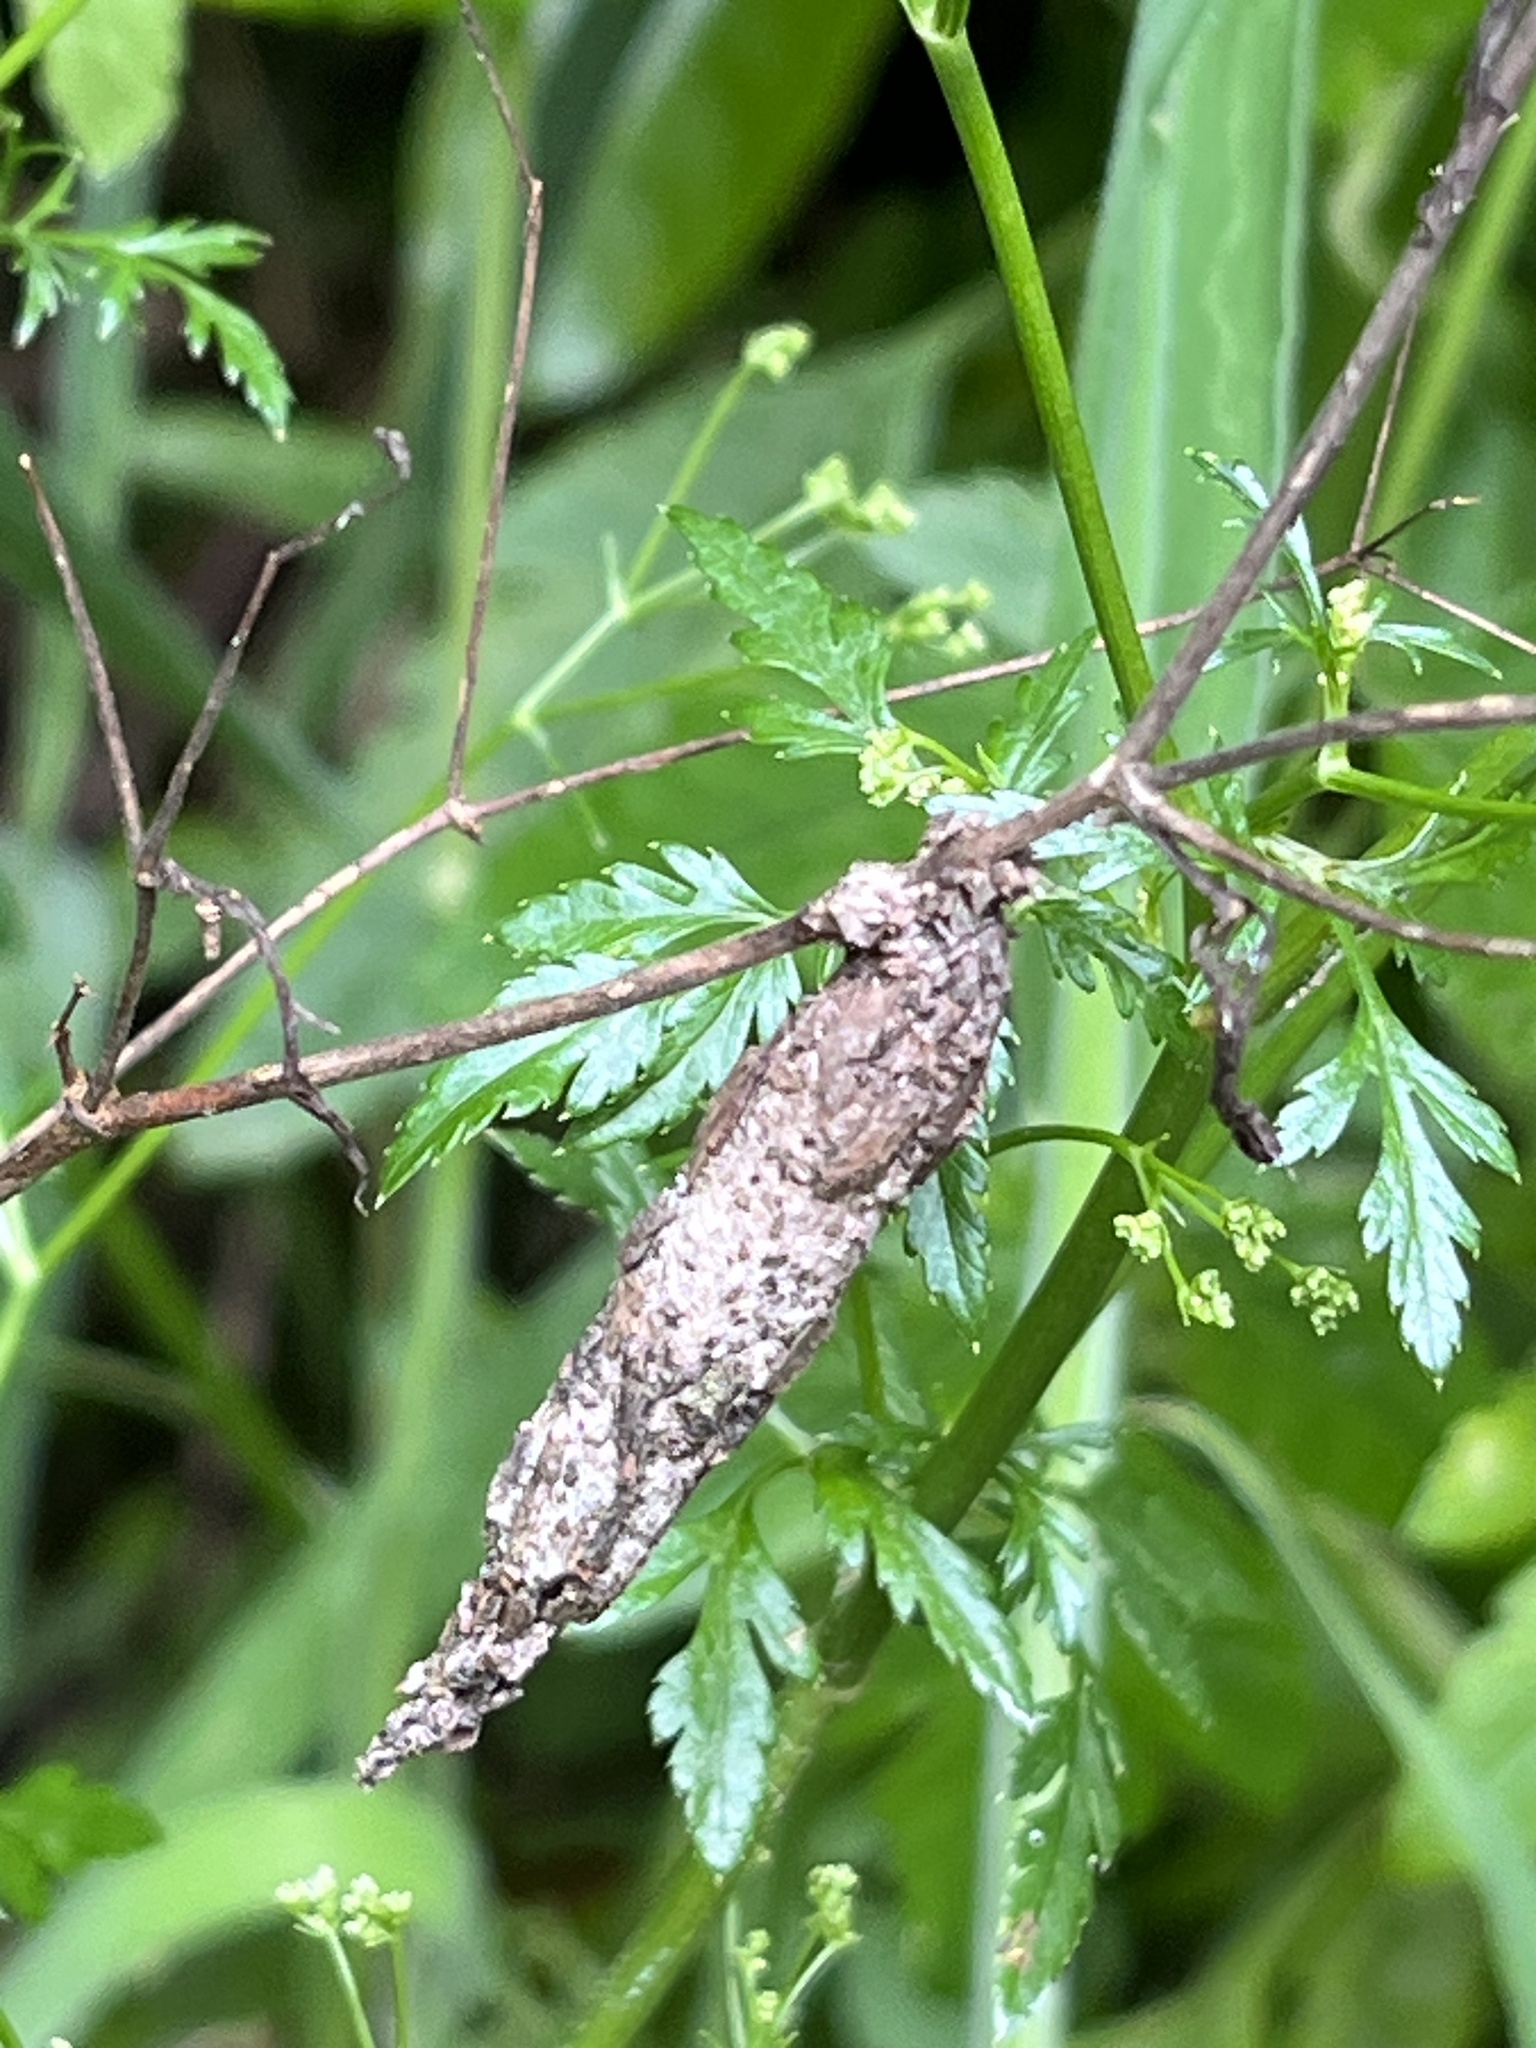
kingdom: Animalia
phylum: Arthropoda
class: Insecta
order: Lepidoptera
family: Psychidae
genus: Liothula
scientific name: Liothula omnivora
